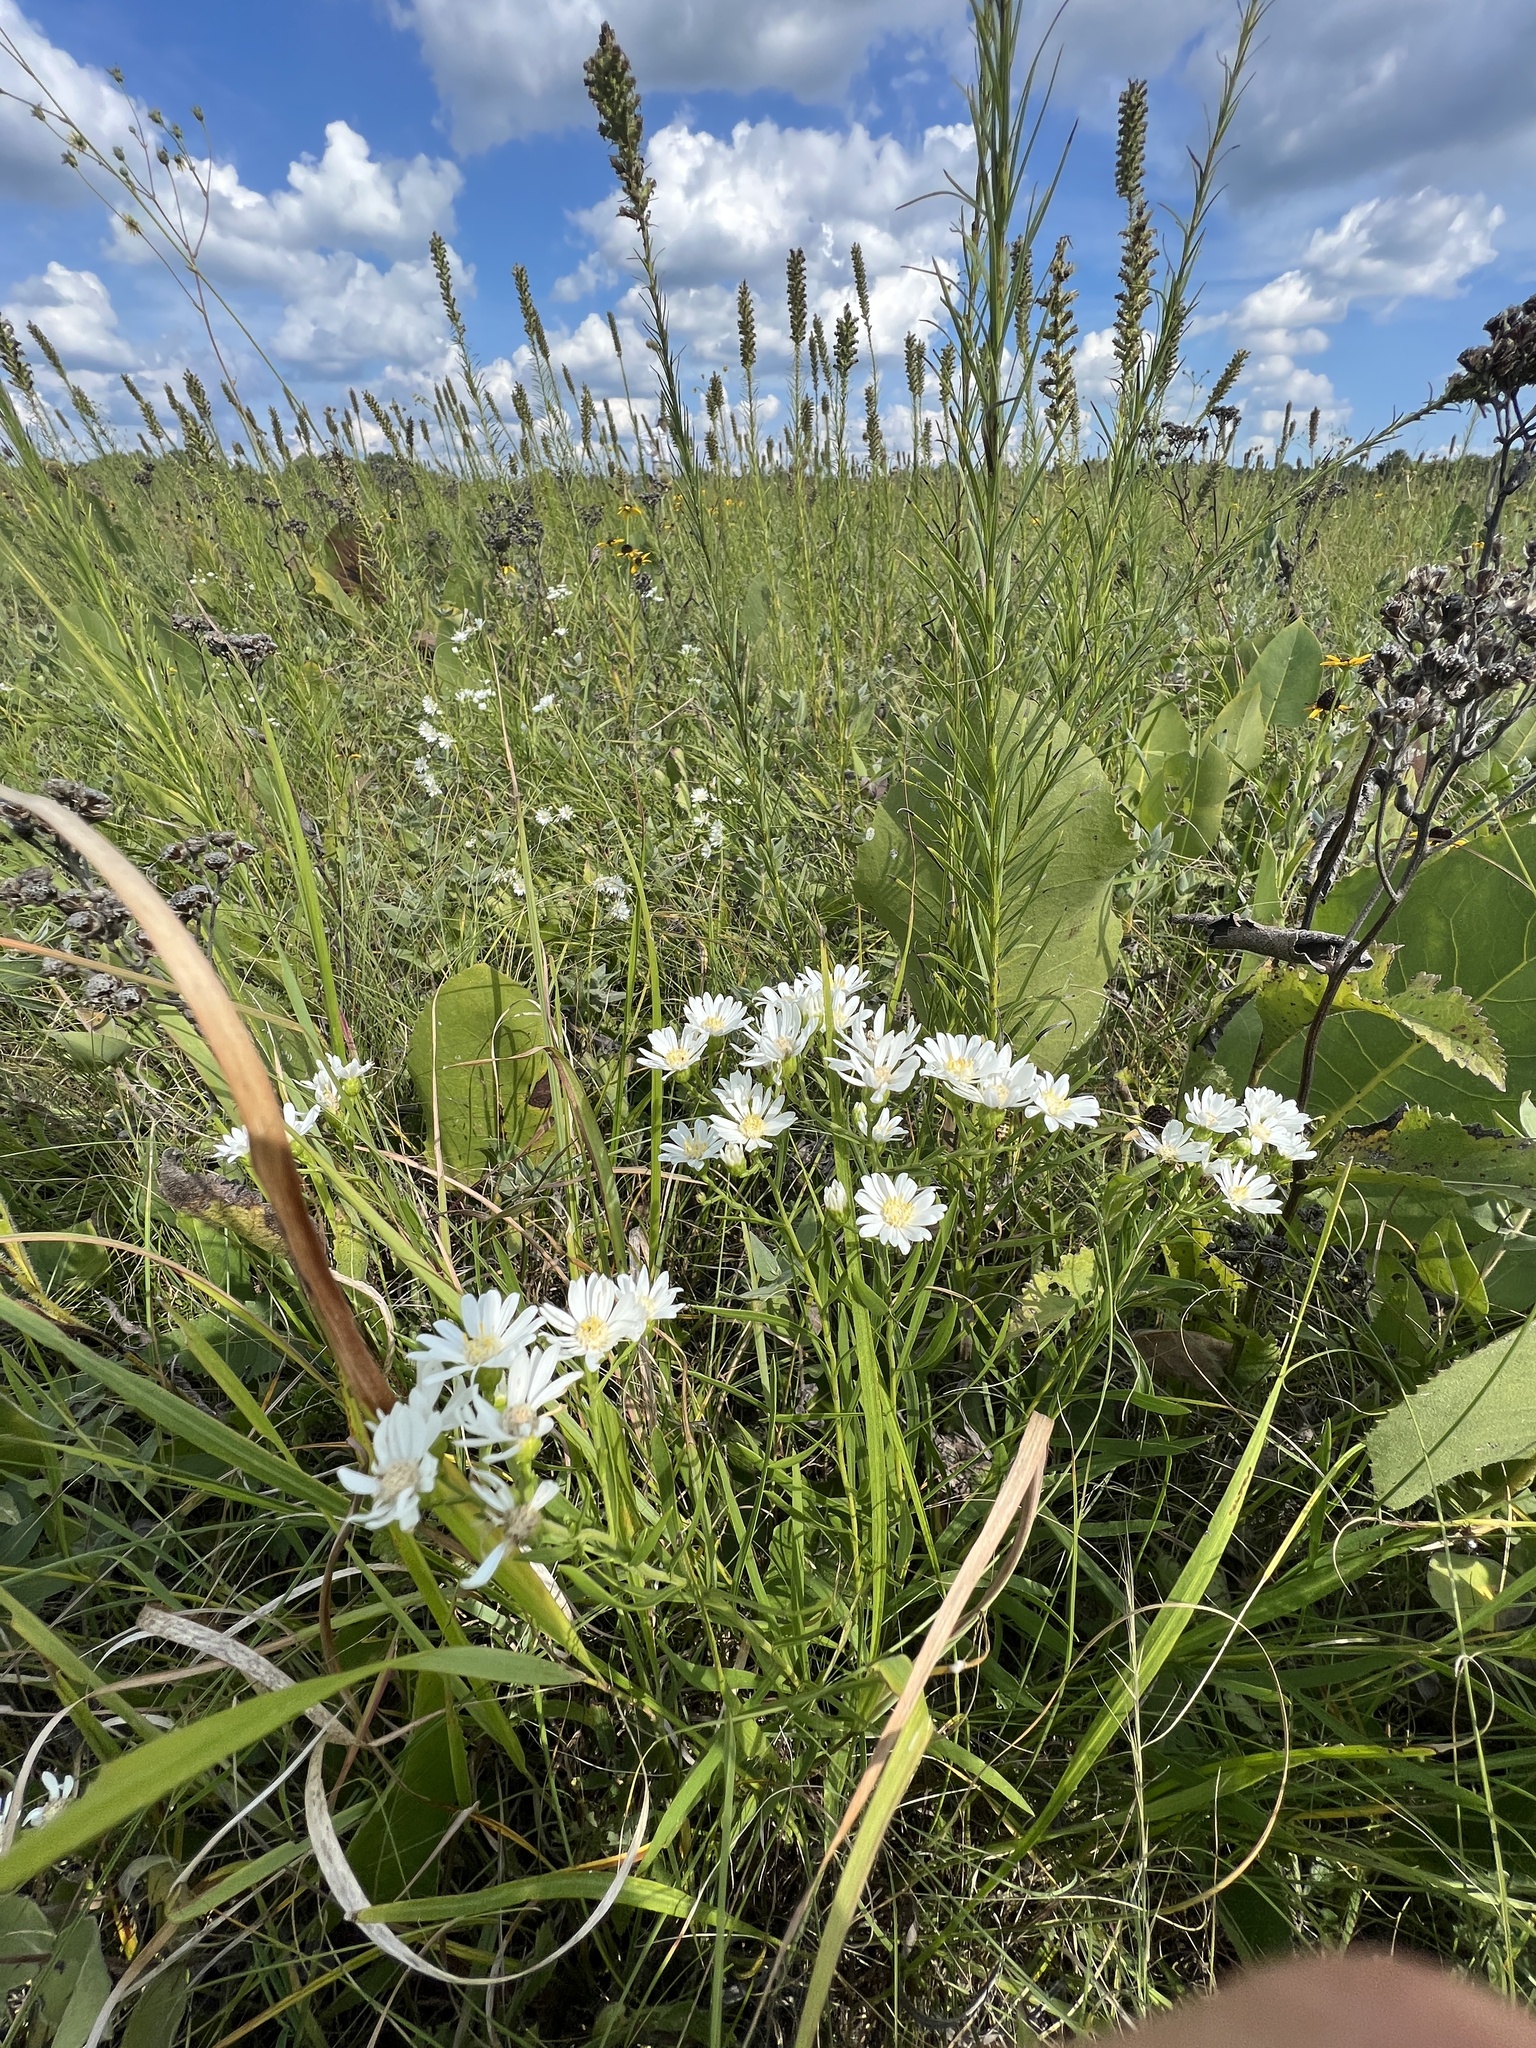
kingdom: Plantae
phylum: Tracheophyta
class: Magnoliopsida
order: Asterales
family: Asteraceae
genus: Solidago
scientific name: Solidago ptarmicoides
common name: White flat-top goldenrod
